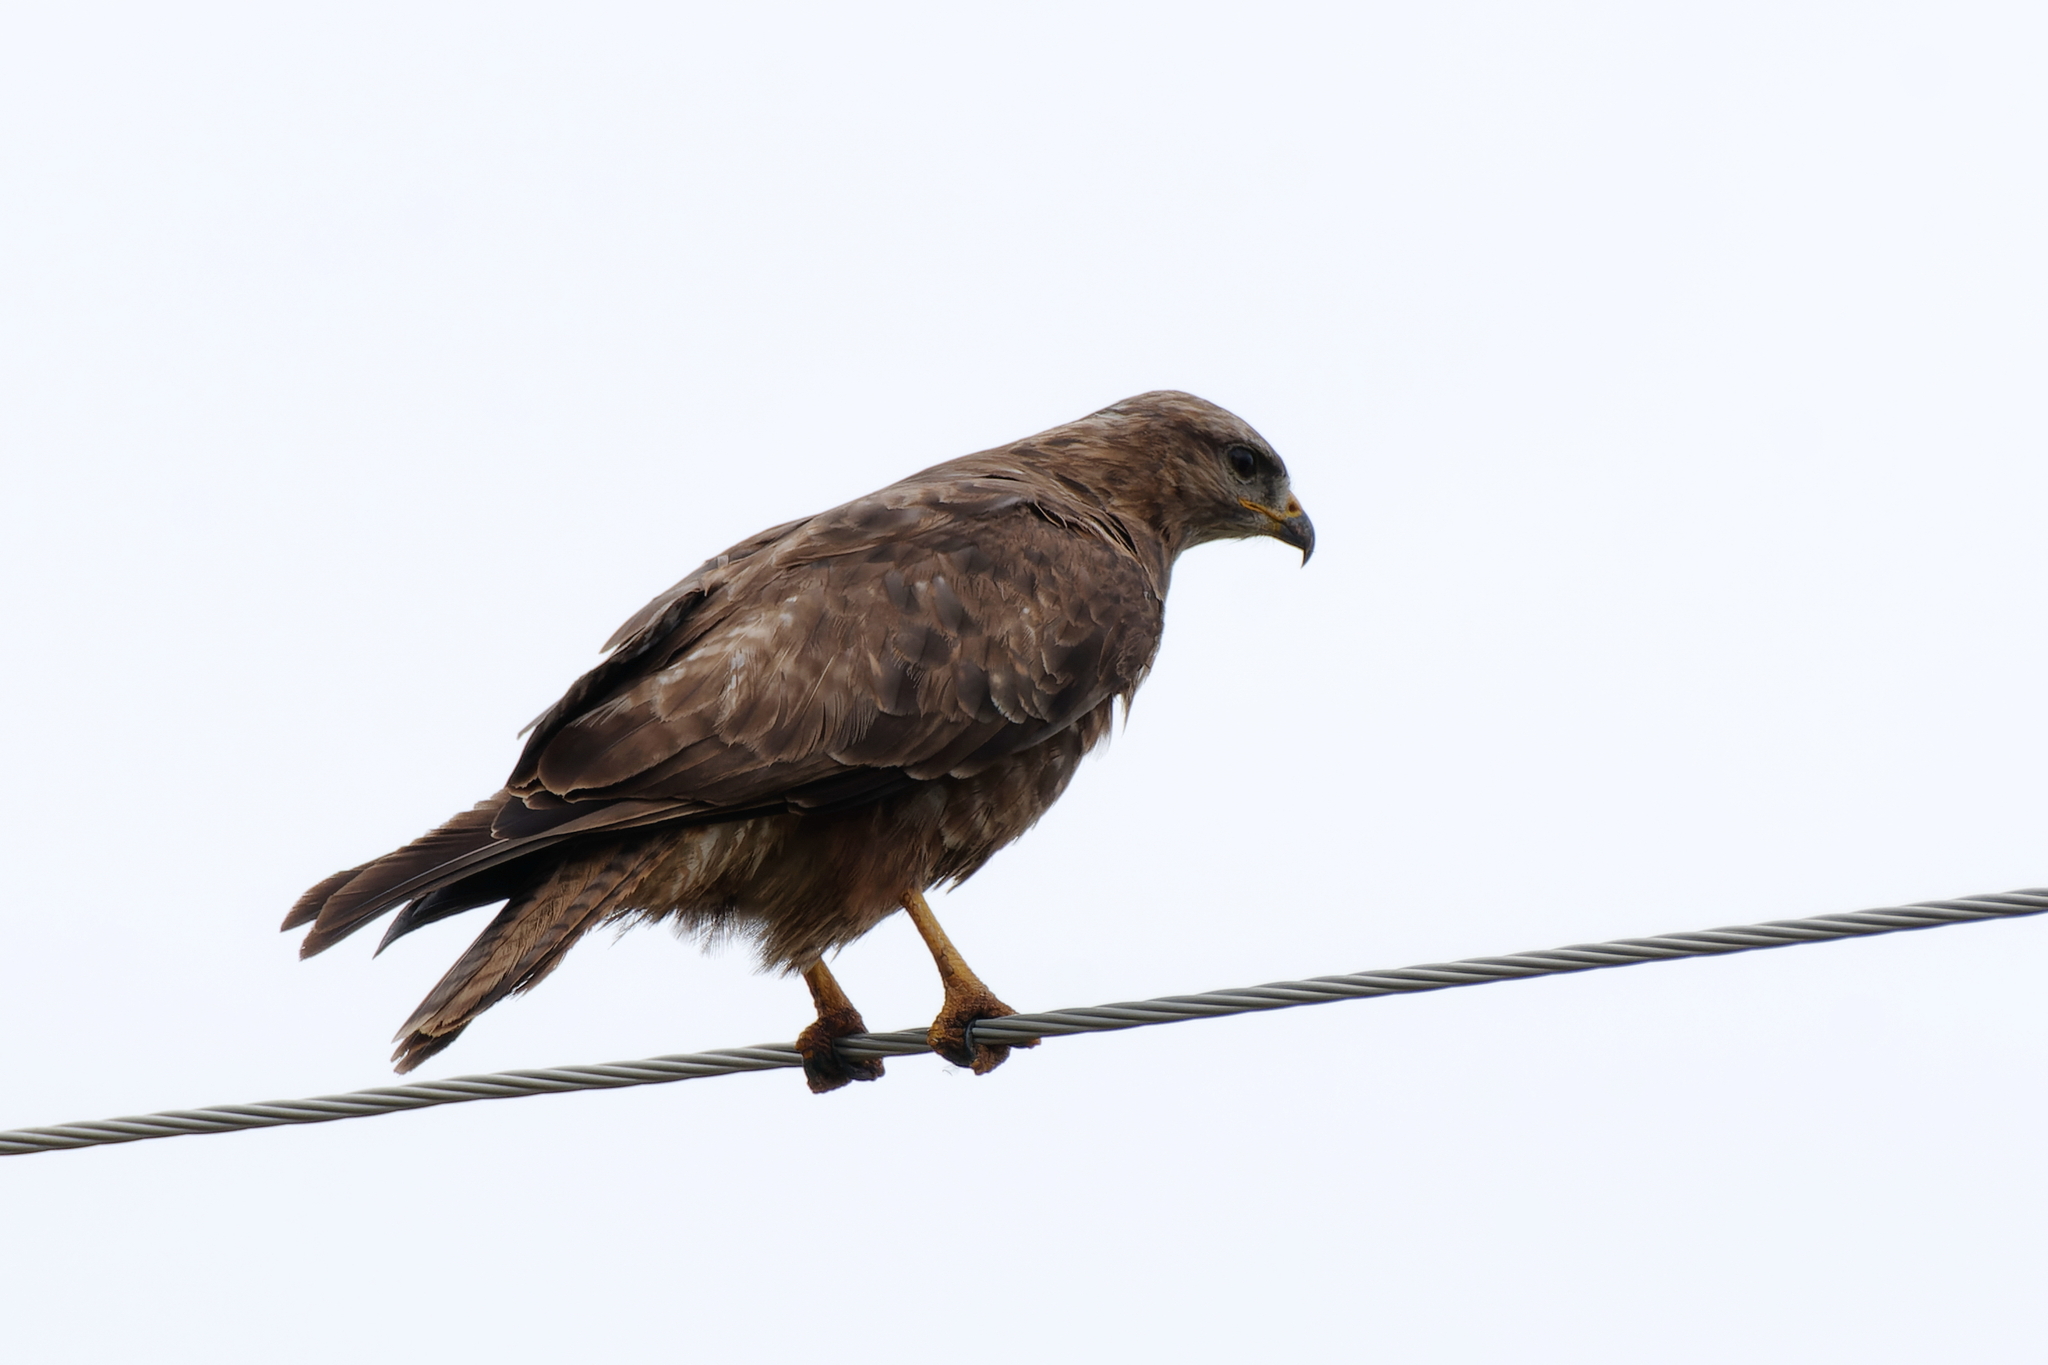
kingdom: Animalia
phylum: Chordata
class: Aves
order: Accipitriformes
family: Accipitridae
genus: Buteo
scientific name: Buteo buteo
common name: Common buzzard
